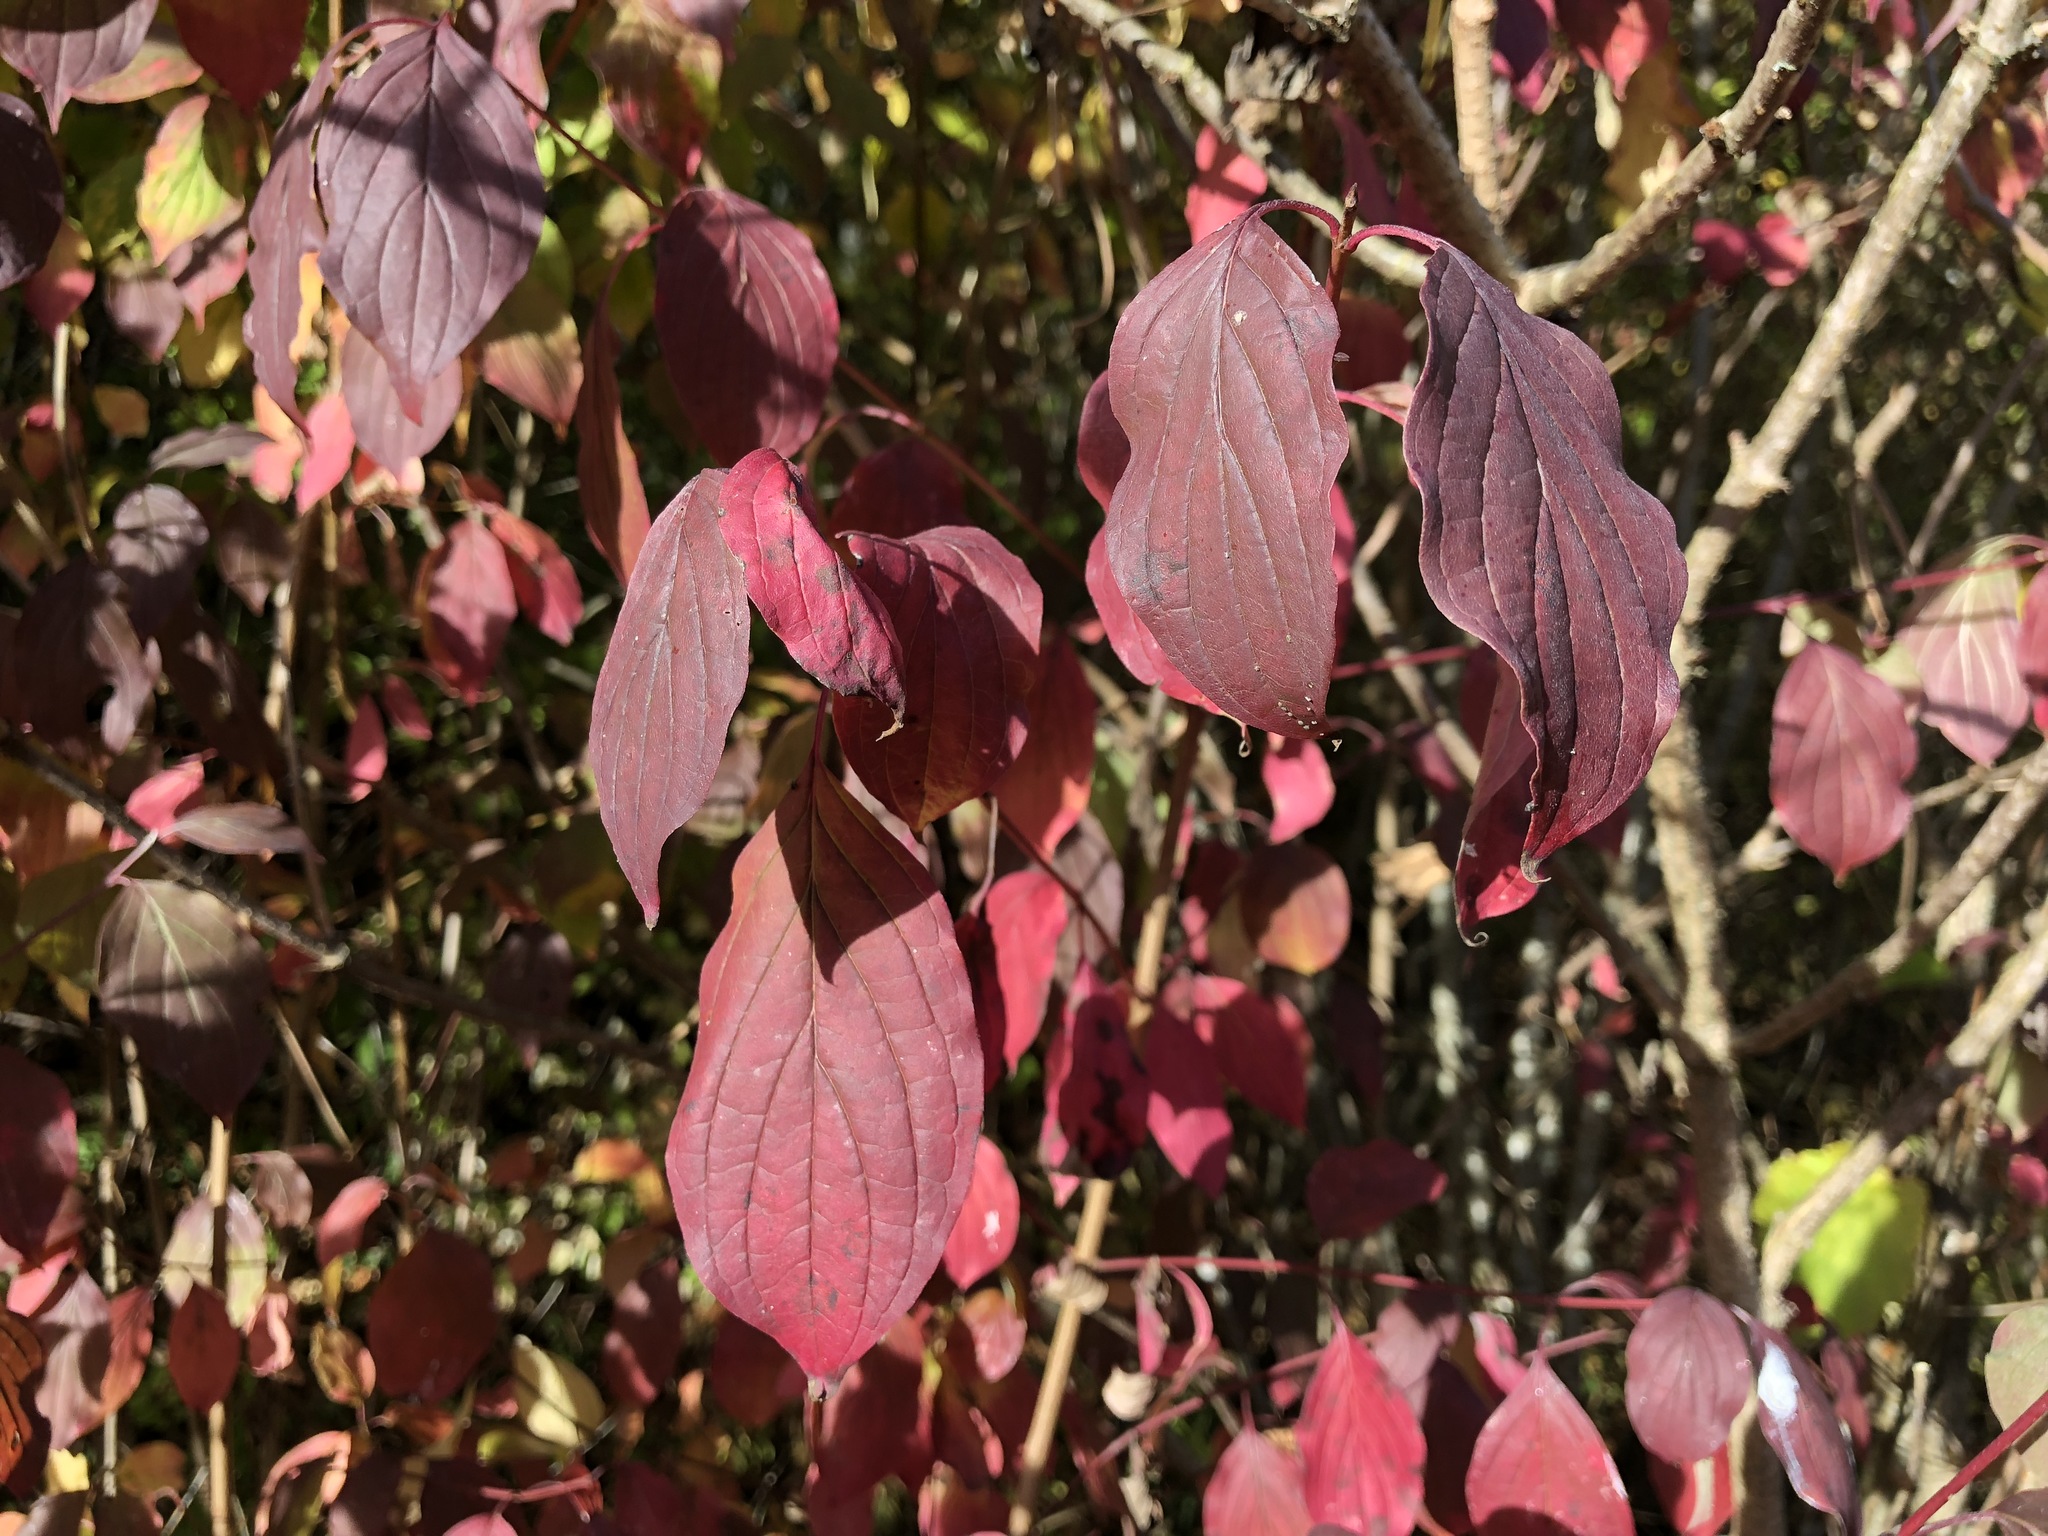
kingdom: Plantae
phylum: Tracheophyta
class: Magnoliopsida
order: Cornales
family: Cornaceae
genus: Cornus
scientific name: Cornus sanguinea
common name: Dogwood
